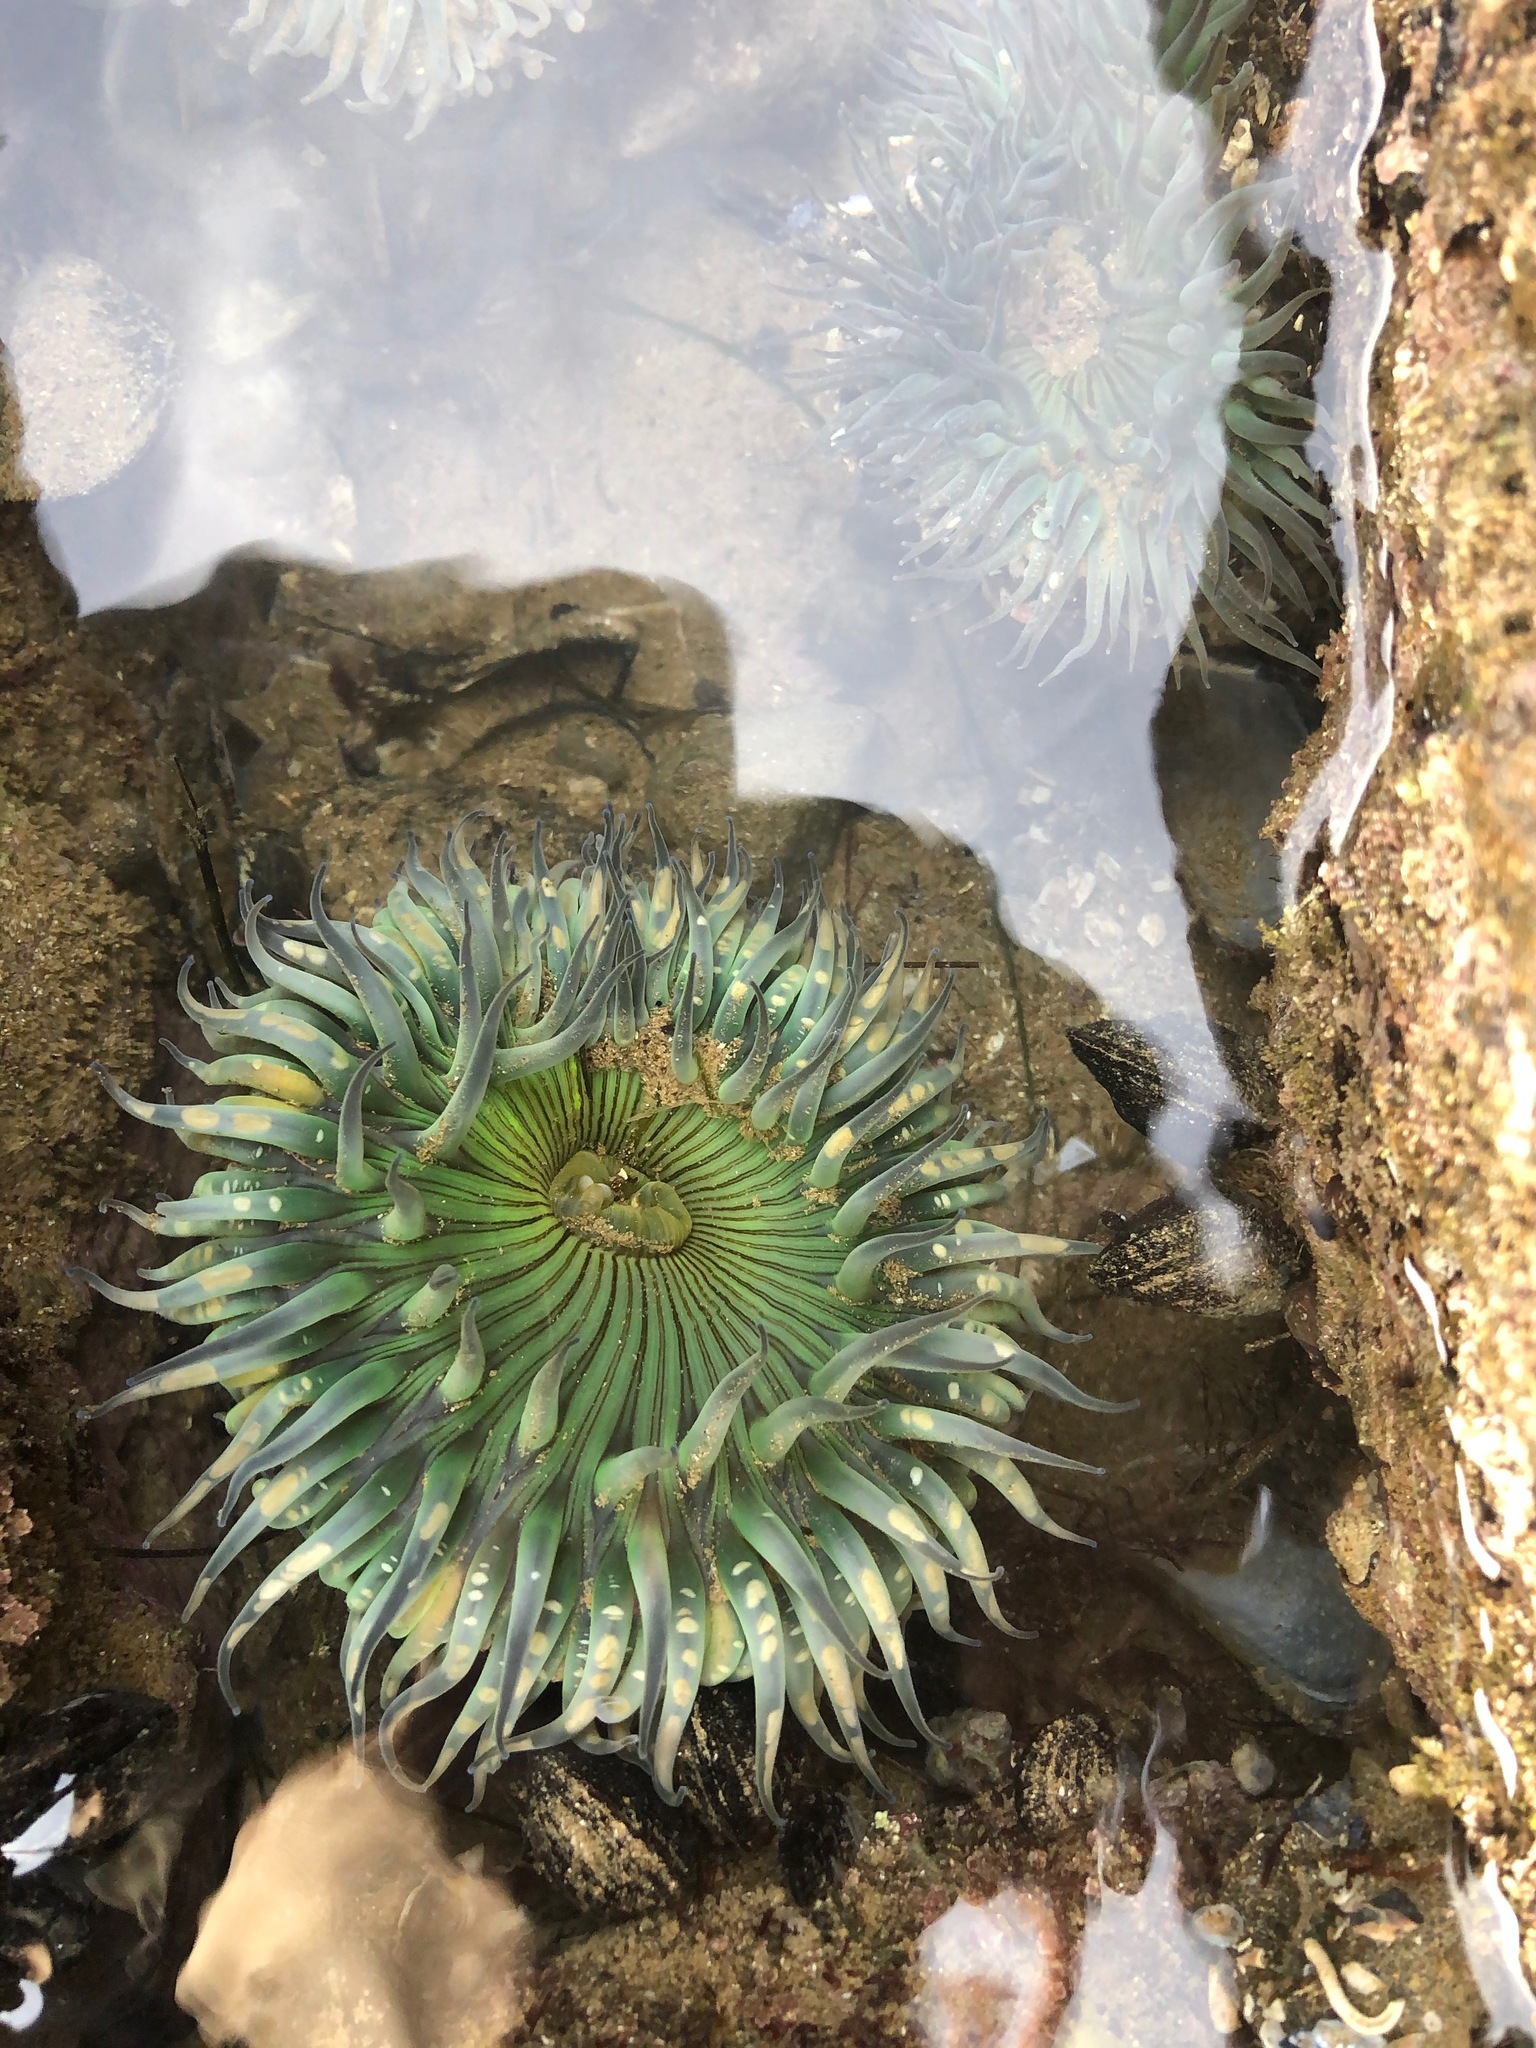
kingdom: Animalia
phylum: Cnidaria
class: Anthozoa
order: Actiniaria
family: Actiniidae
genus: Anthopleura
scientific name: Anthopleura sola
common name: Sun anemone
